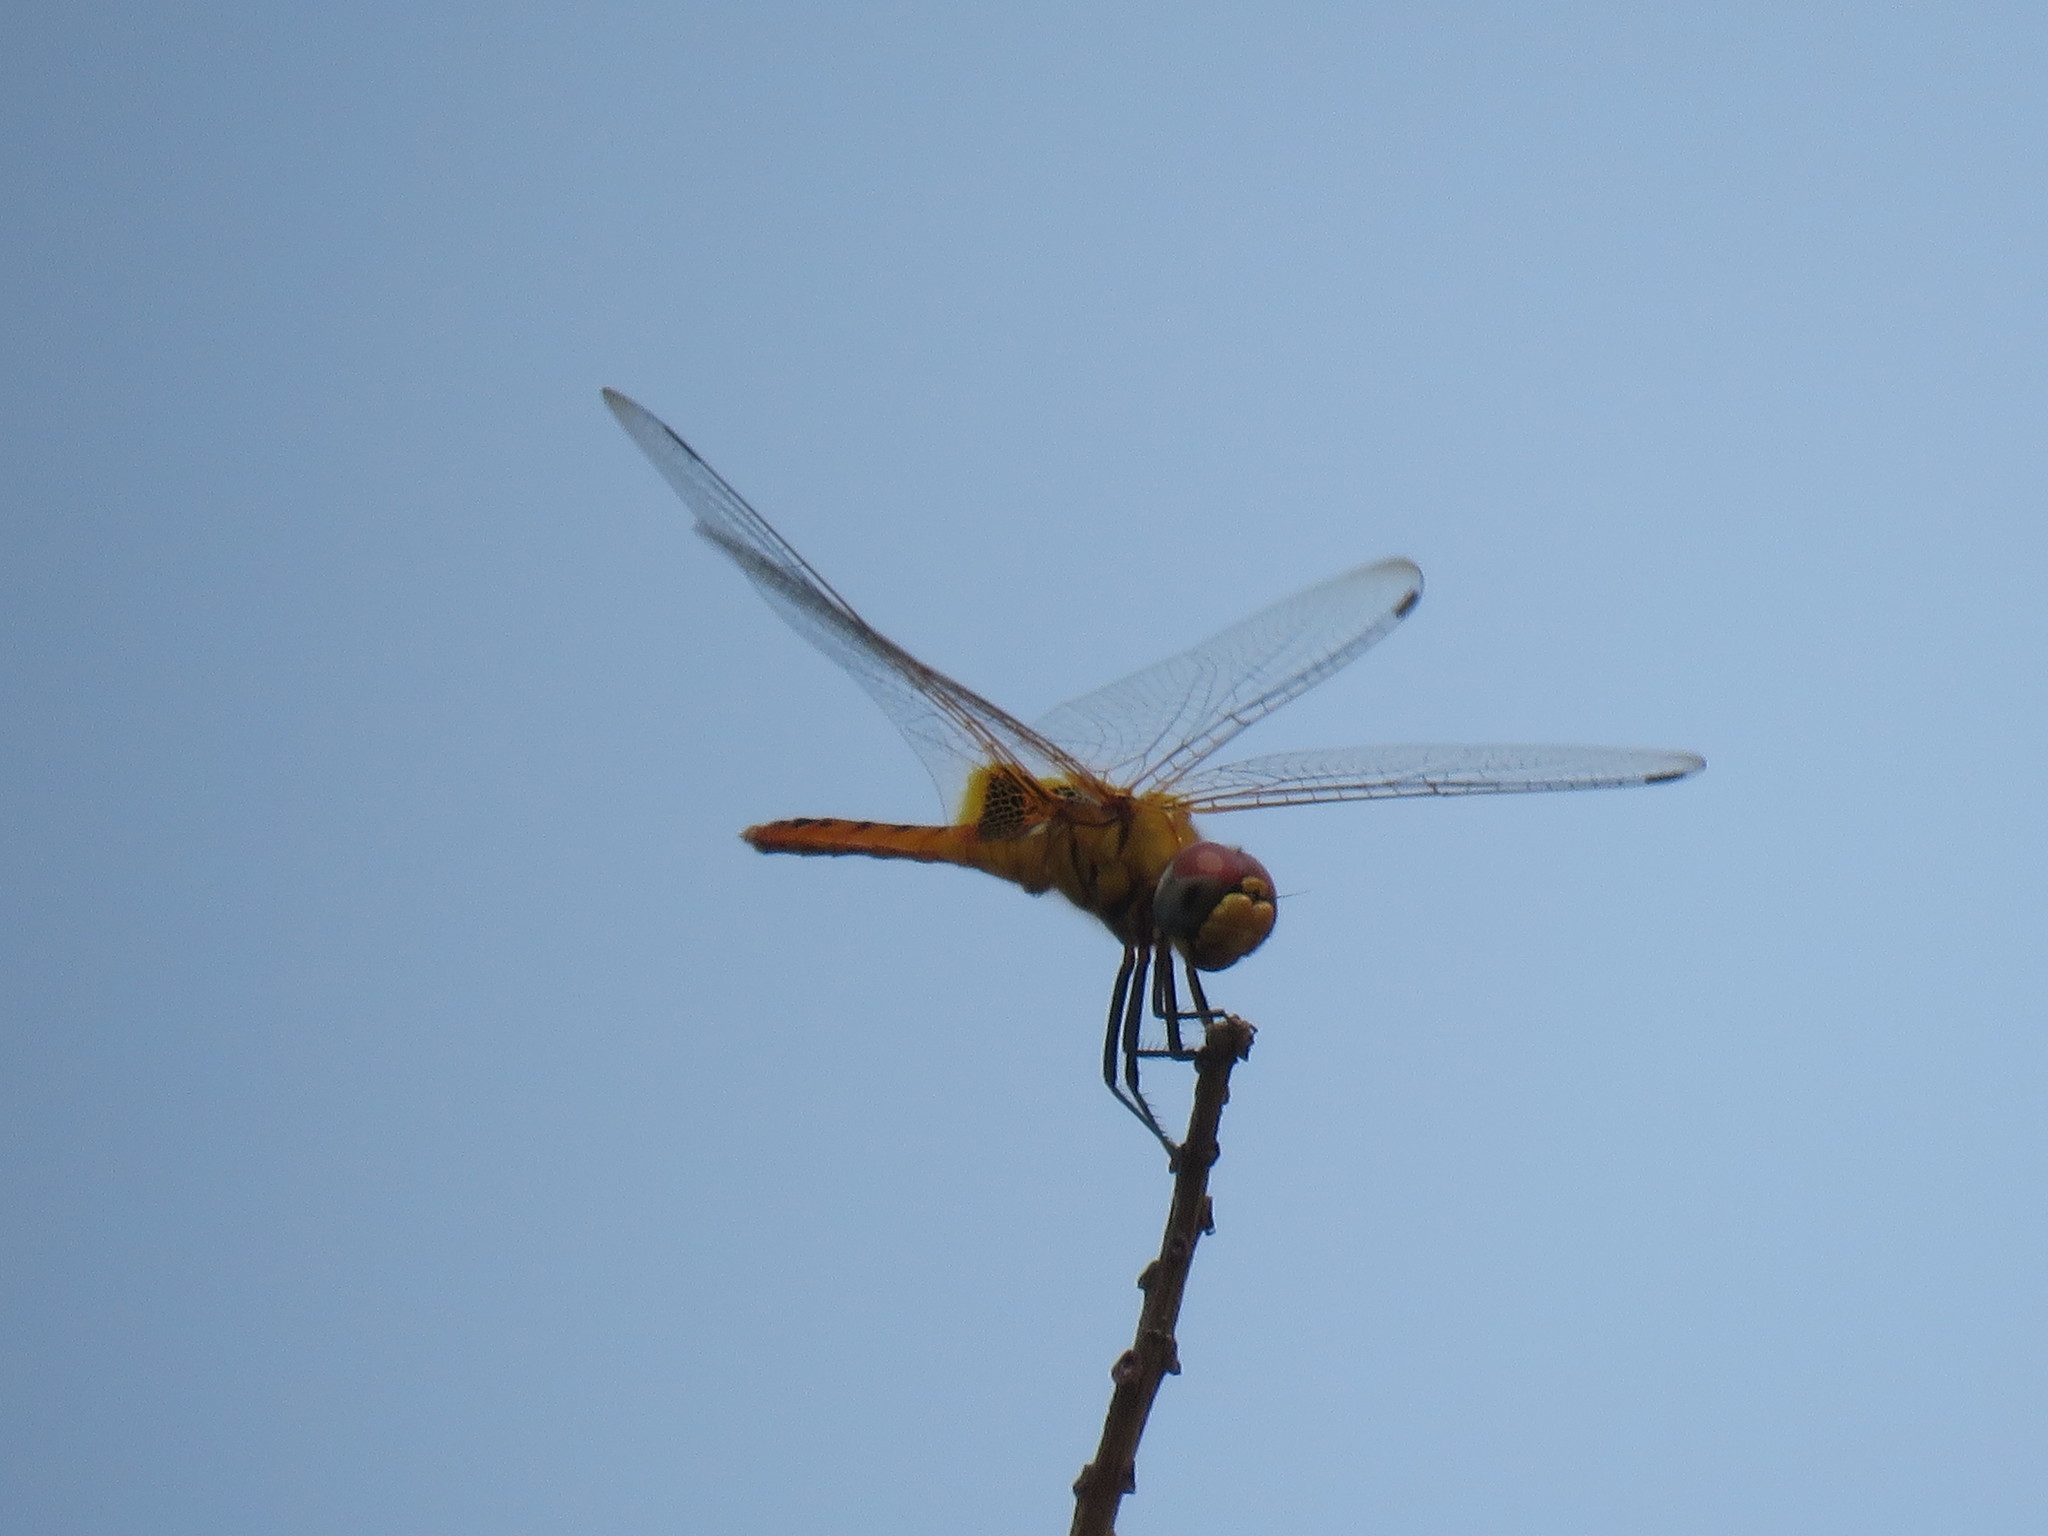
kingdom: Animalia
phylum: Arthropoda
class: Insecta
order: Odonata
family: Libellulidae
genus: Urothemis
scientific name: Urothemis signata
